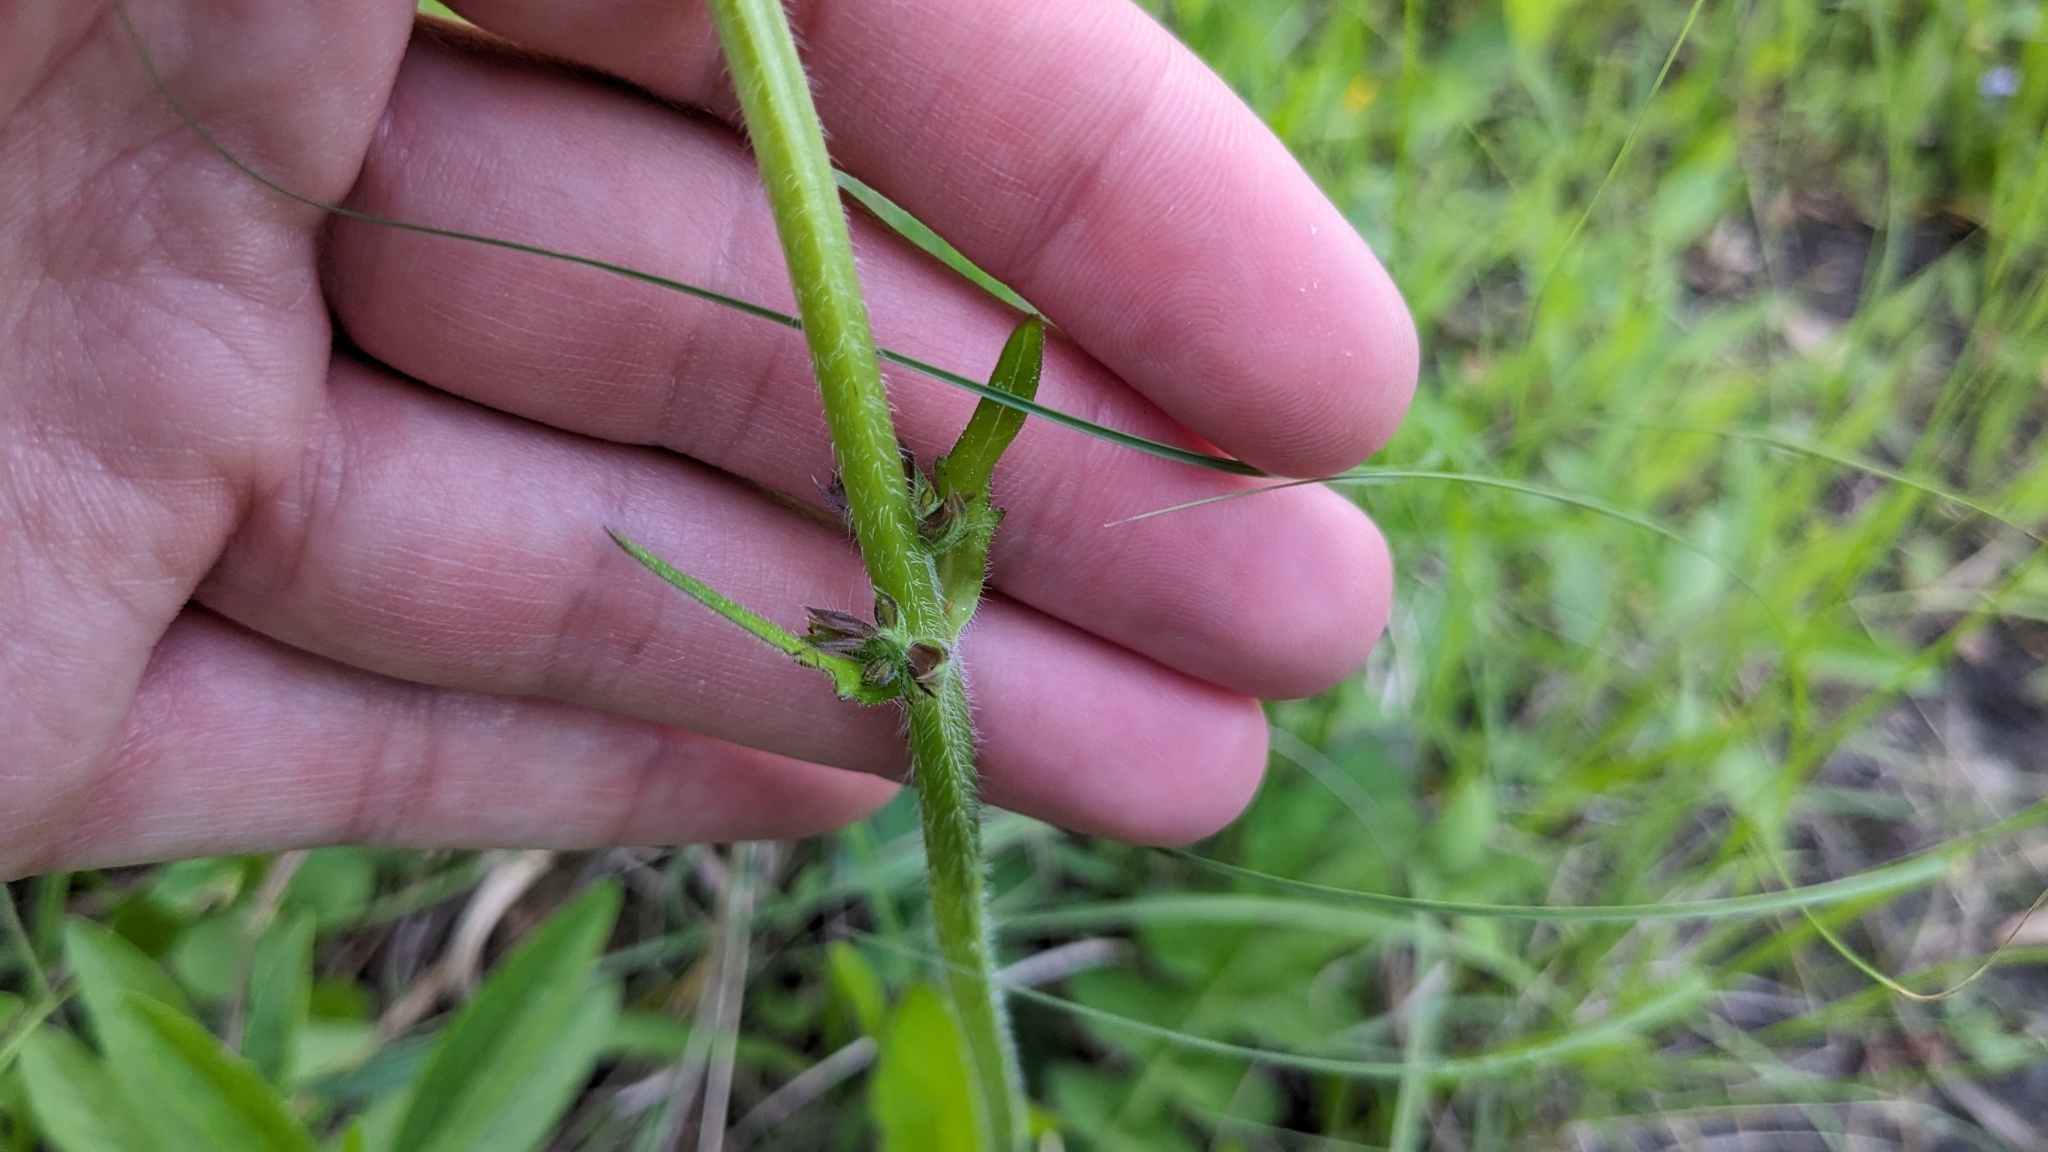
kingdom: Plantae
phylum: Tracheophyta
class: Magnoliopsida
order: Lamiales
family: Lamiaceae
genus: Salvia
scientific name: Salvia lyrata
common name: Cancerweed
